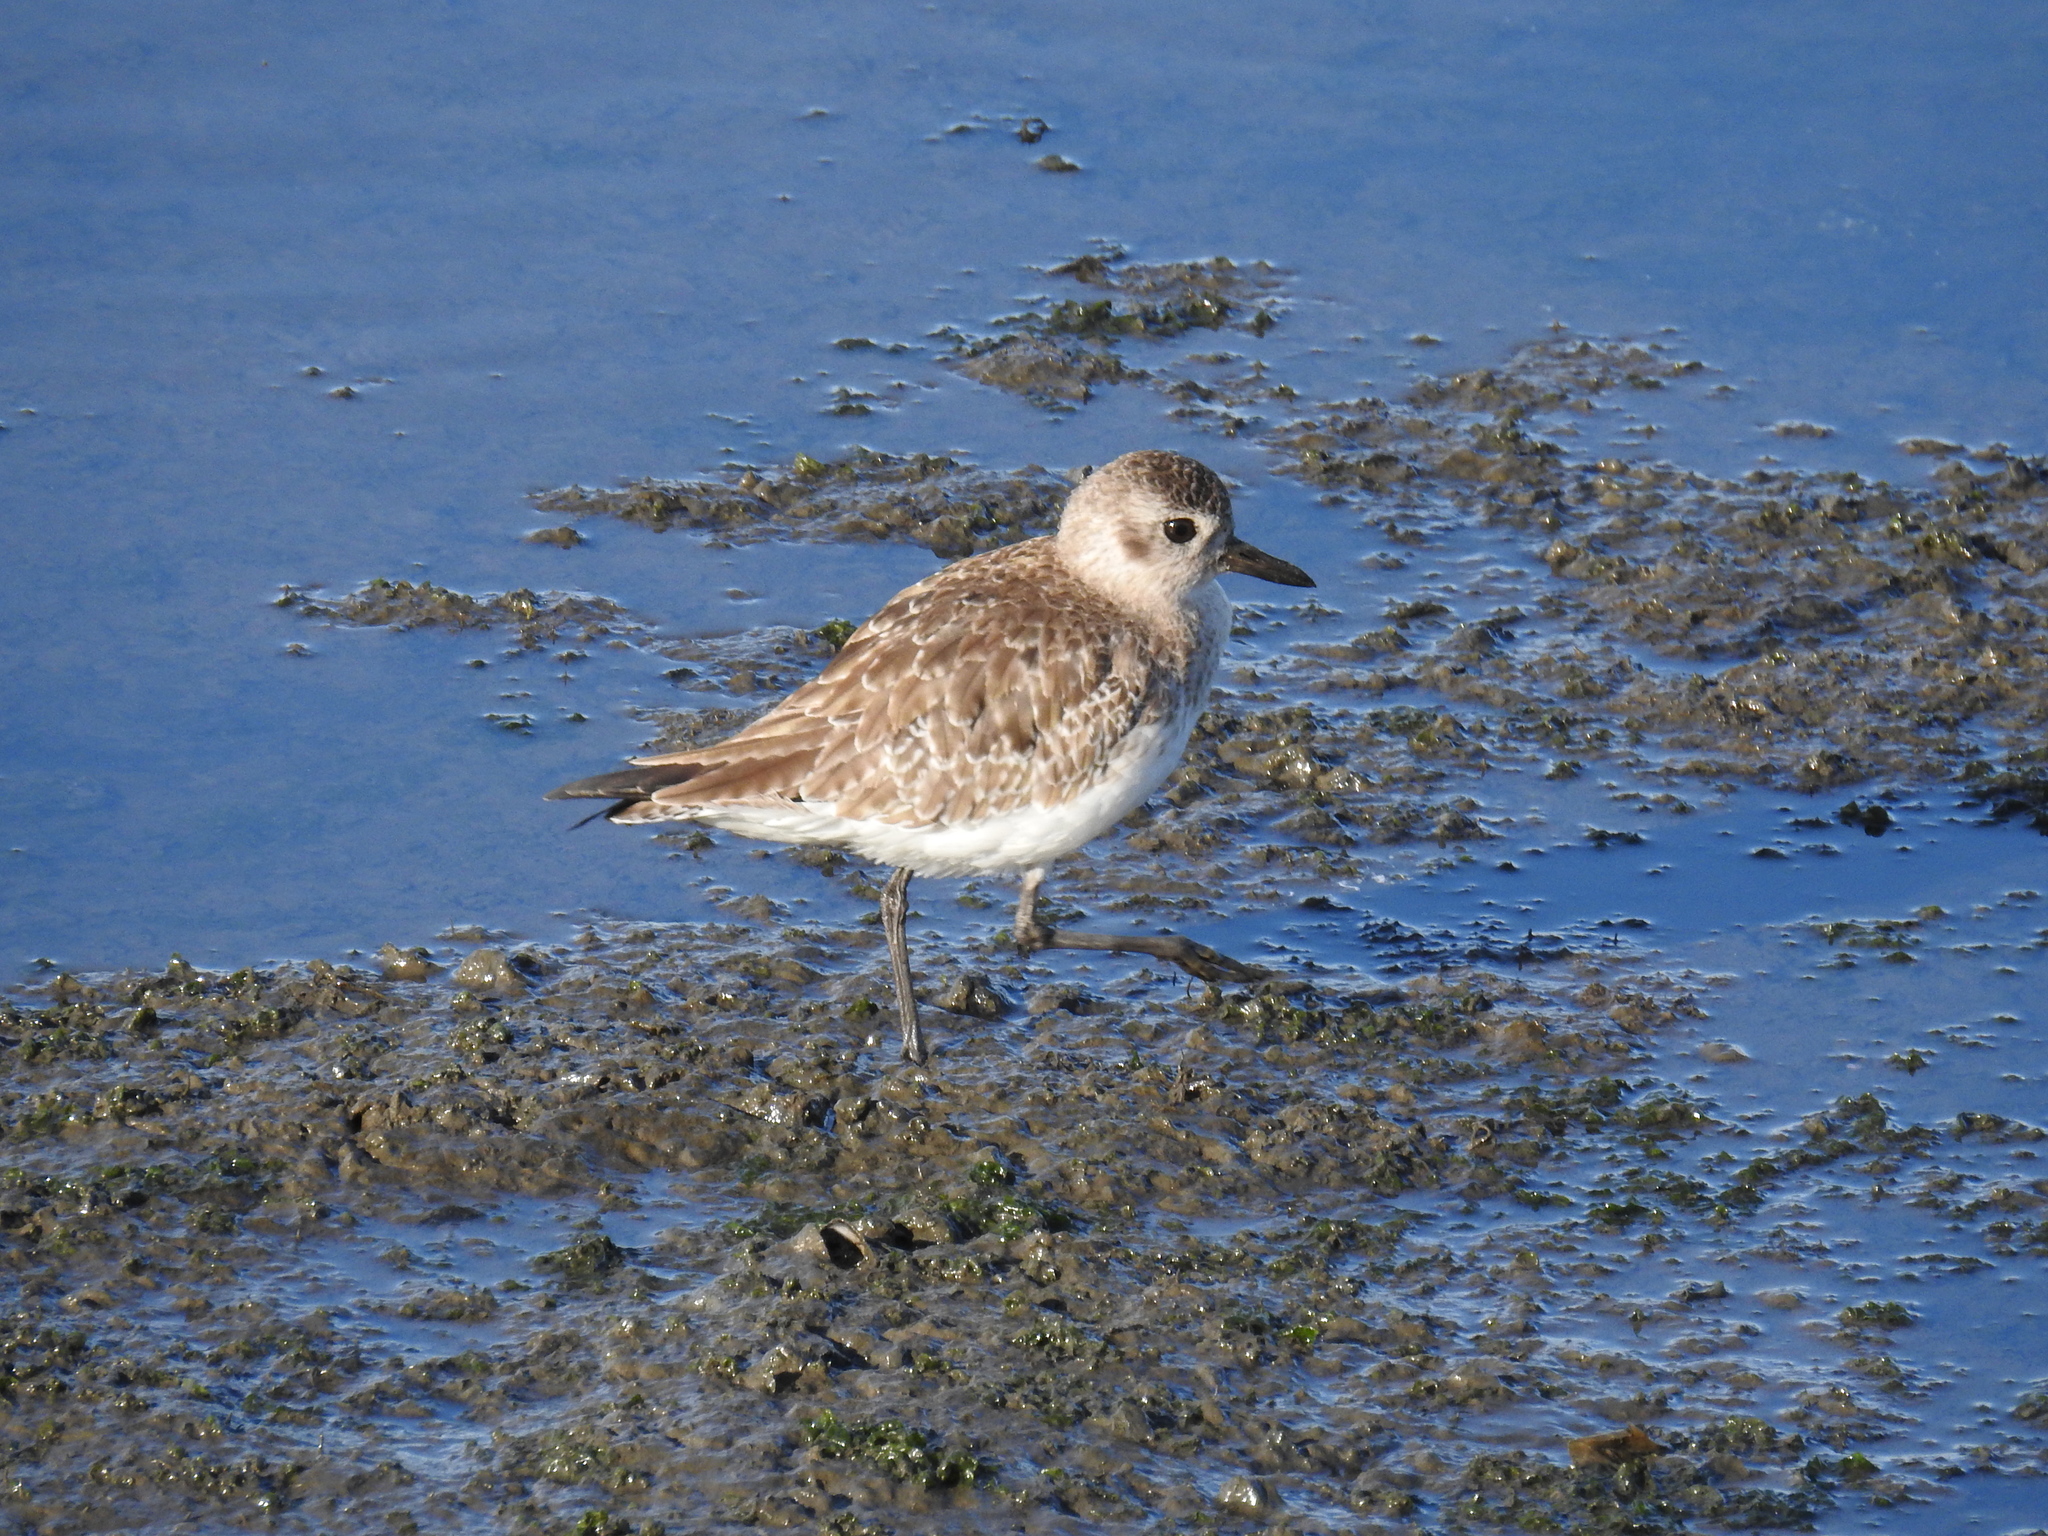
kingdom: Animalia
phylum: Chordata
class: Aves
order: Charadriiformes
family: Charadriidae
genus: Pluvialis
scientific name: Pluvialis squatarola
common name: Grey plover
